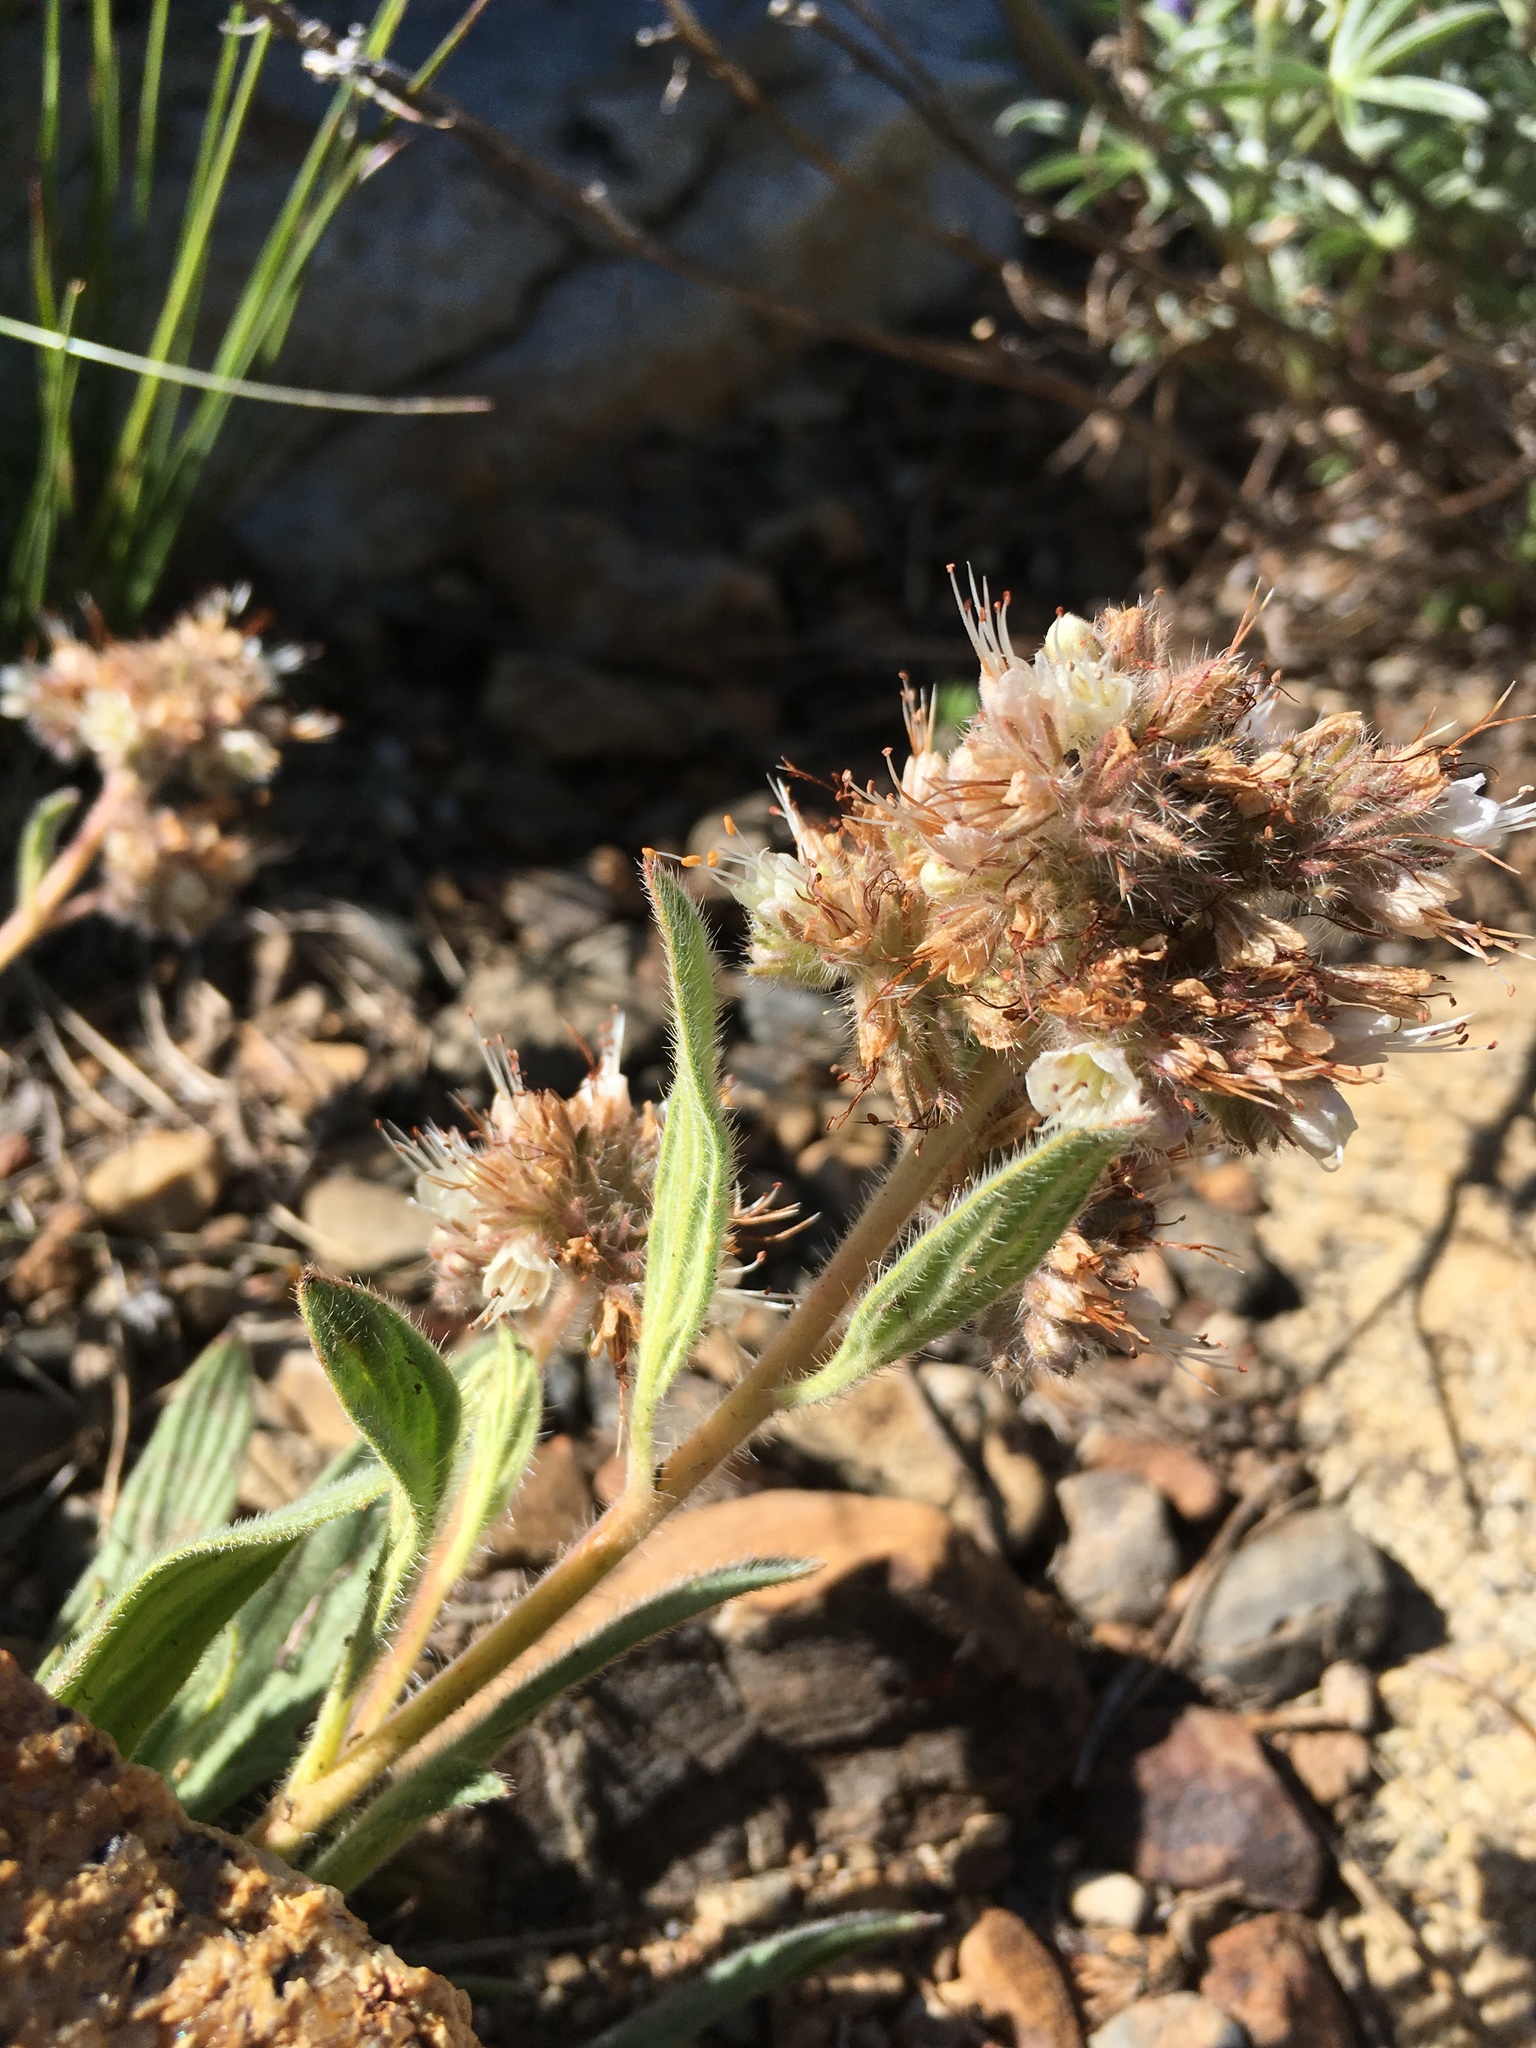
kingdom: Plantae
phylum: Tracheophyta
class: Magnoliopsida
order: Boraginales
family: Hydrophyllaceae
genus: Phacelia
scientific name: Phacelia hastata
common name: Silver-leaved phacelia
